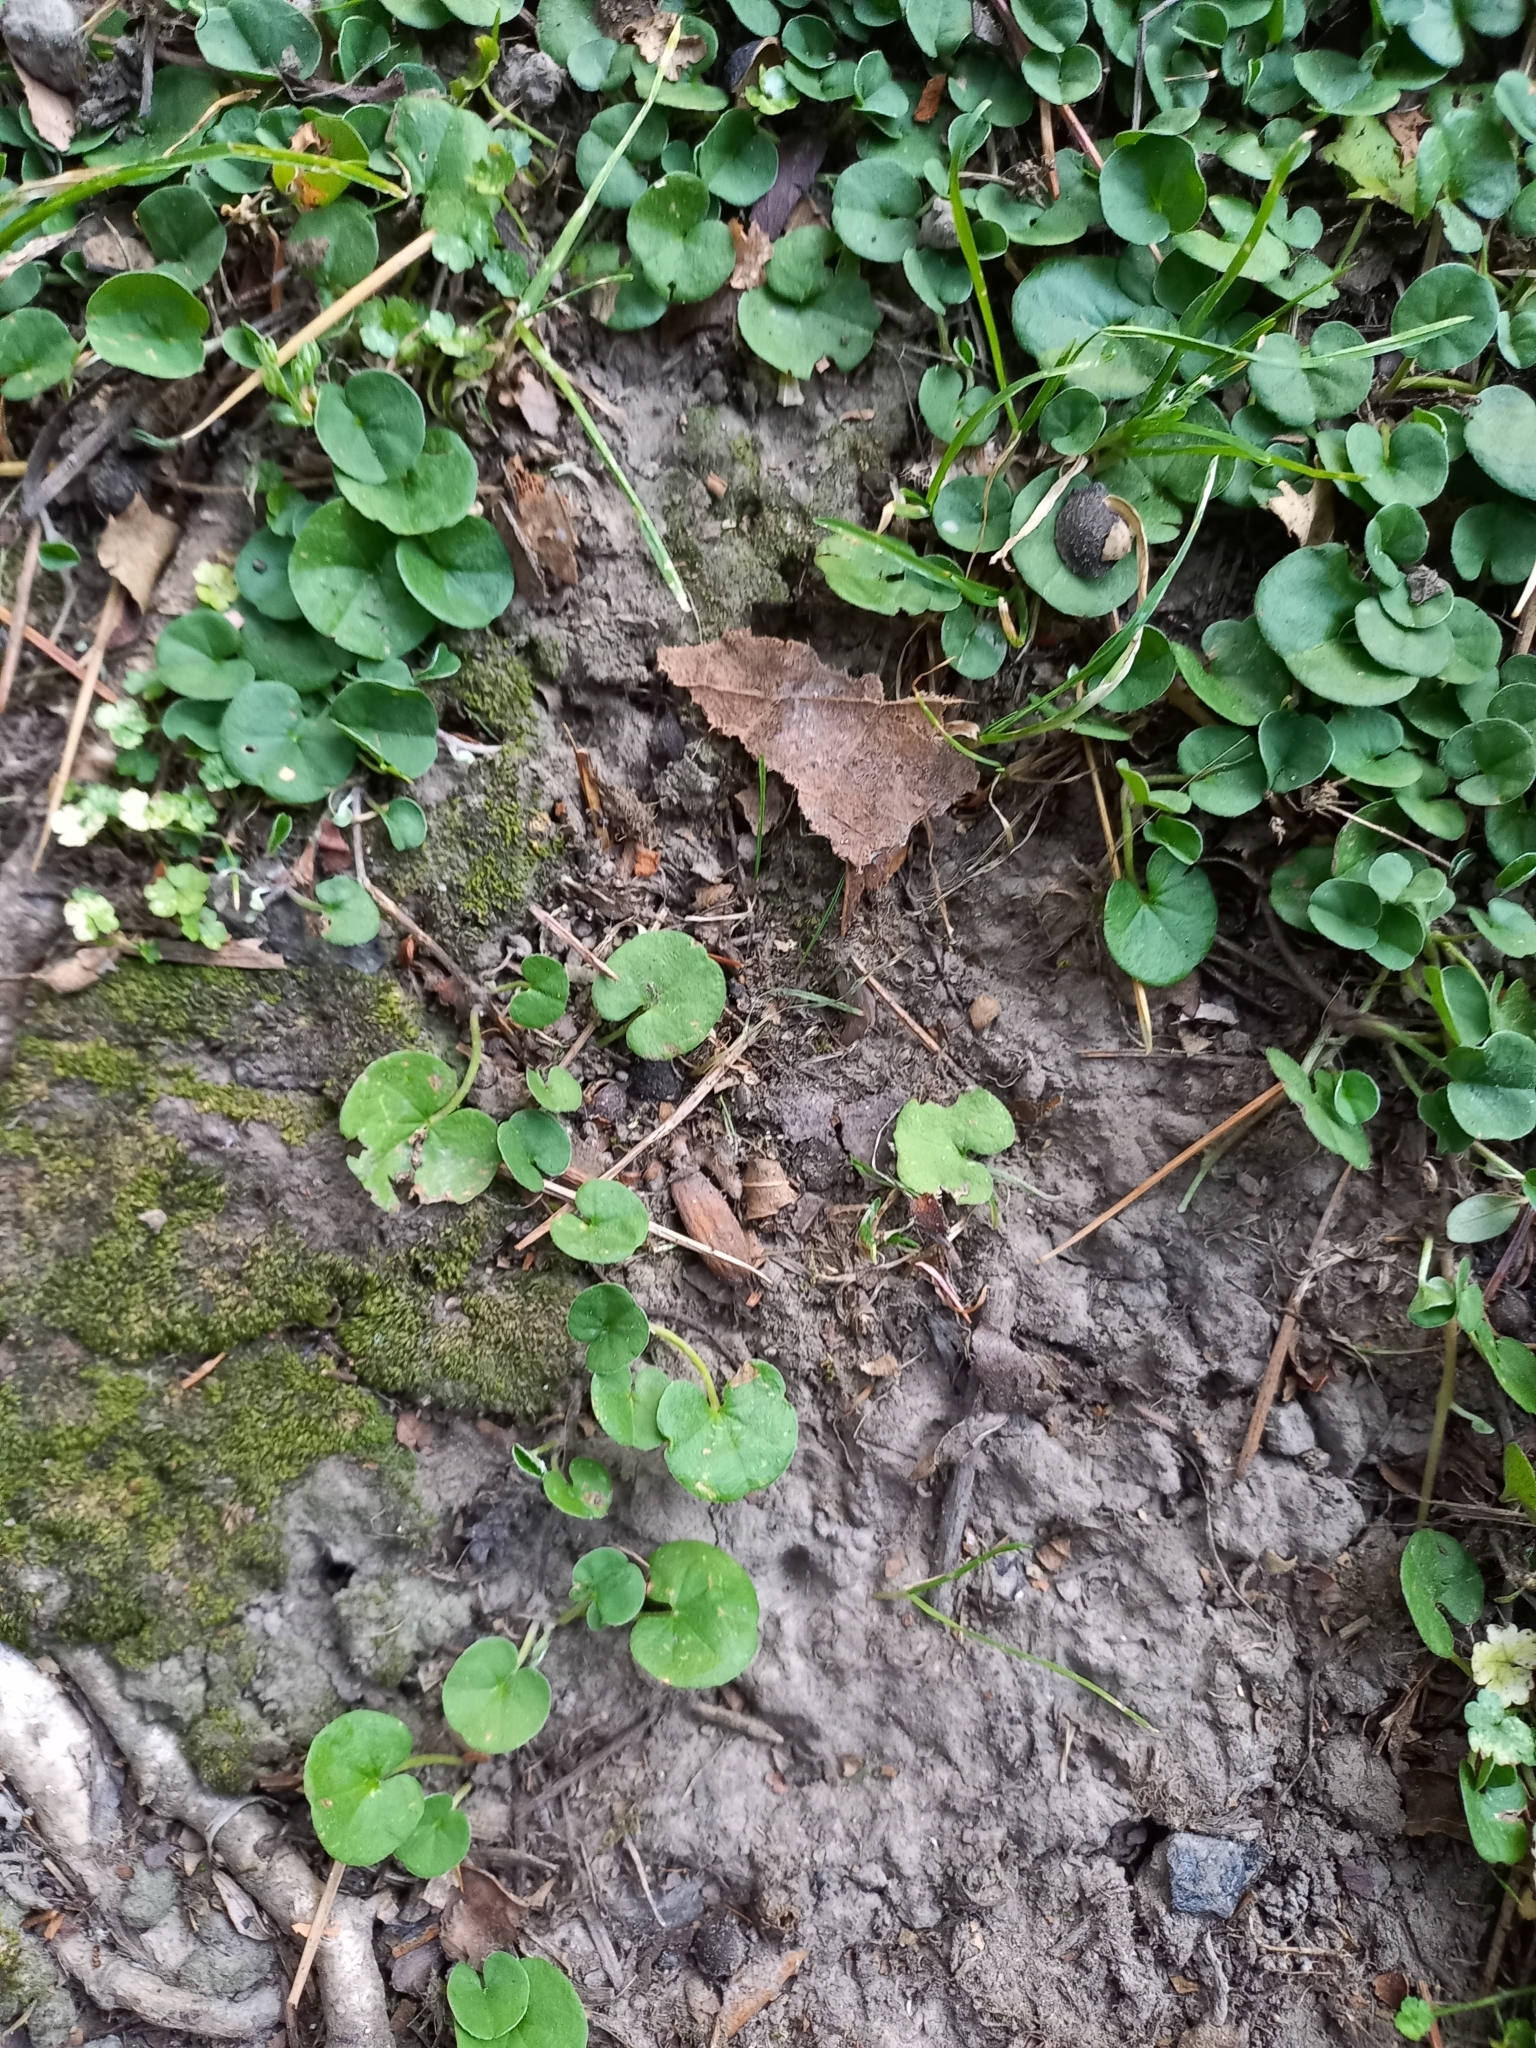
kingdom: Plantae
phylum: Tracheophyta
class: Magnoliopsida
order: Solanales
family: Convolvulaceae
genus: Dichondra
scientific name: Dichondra repens
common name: Kidneyweed
